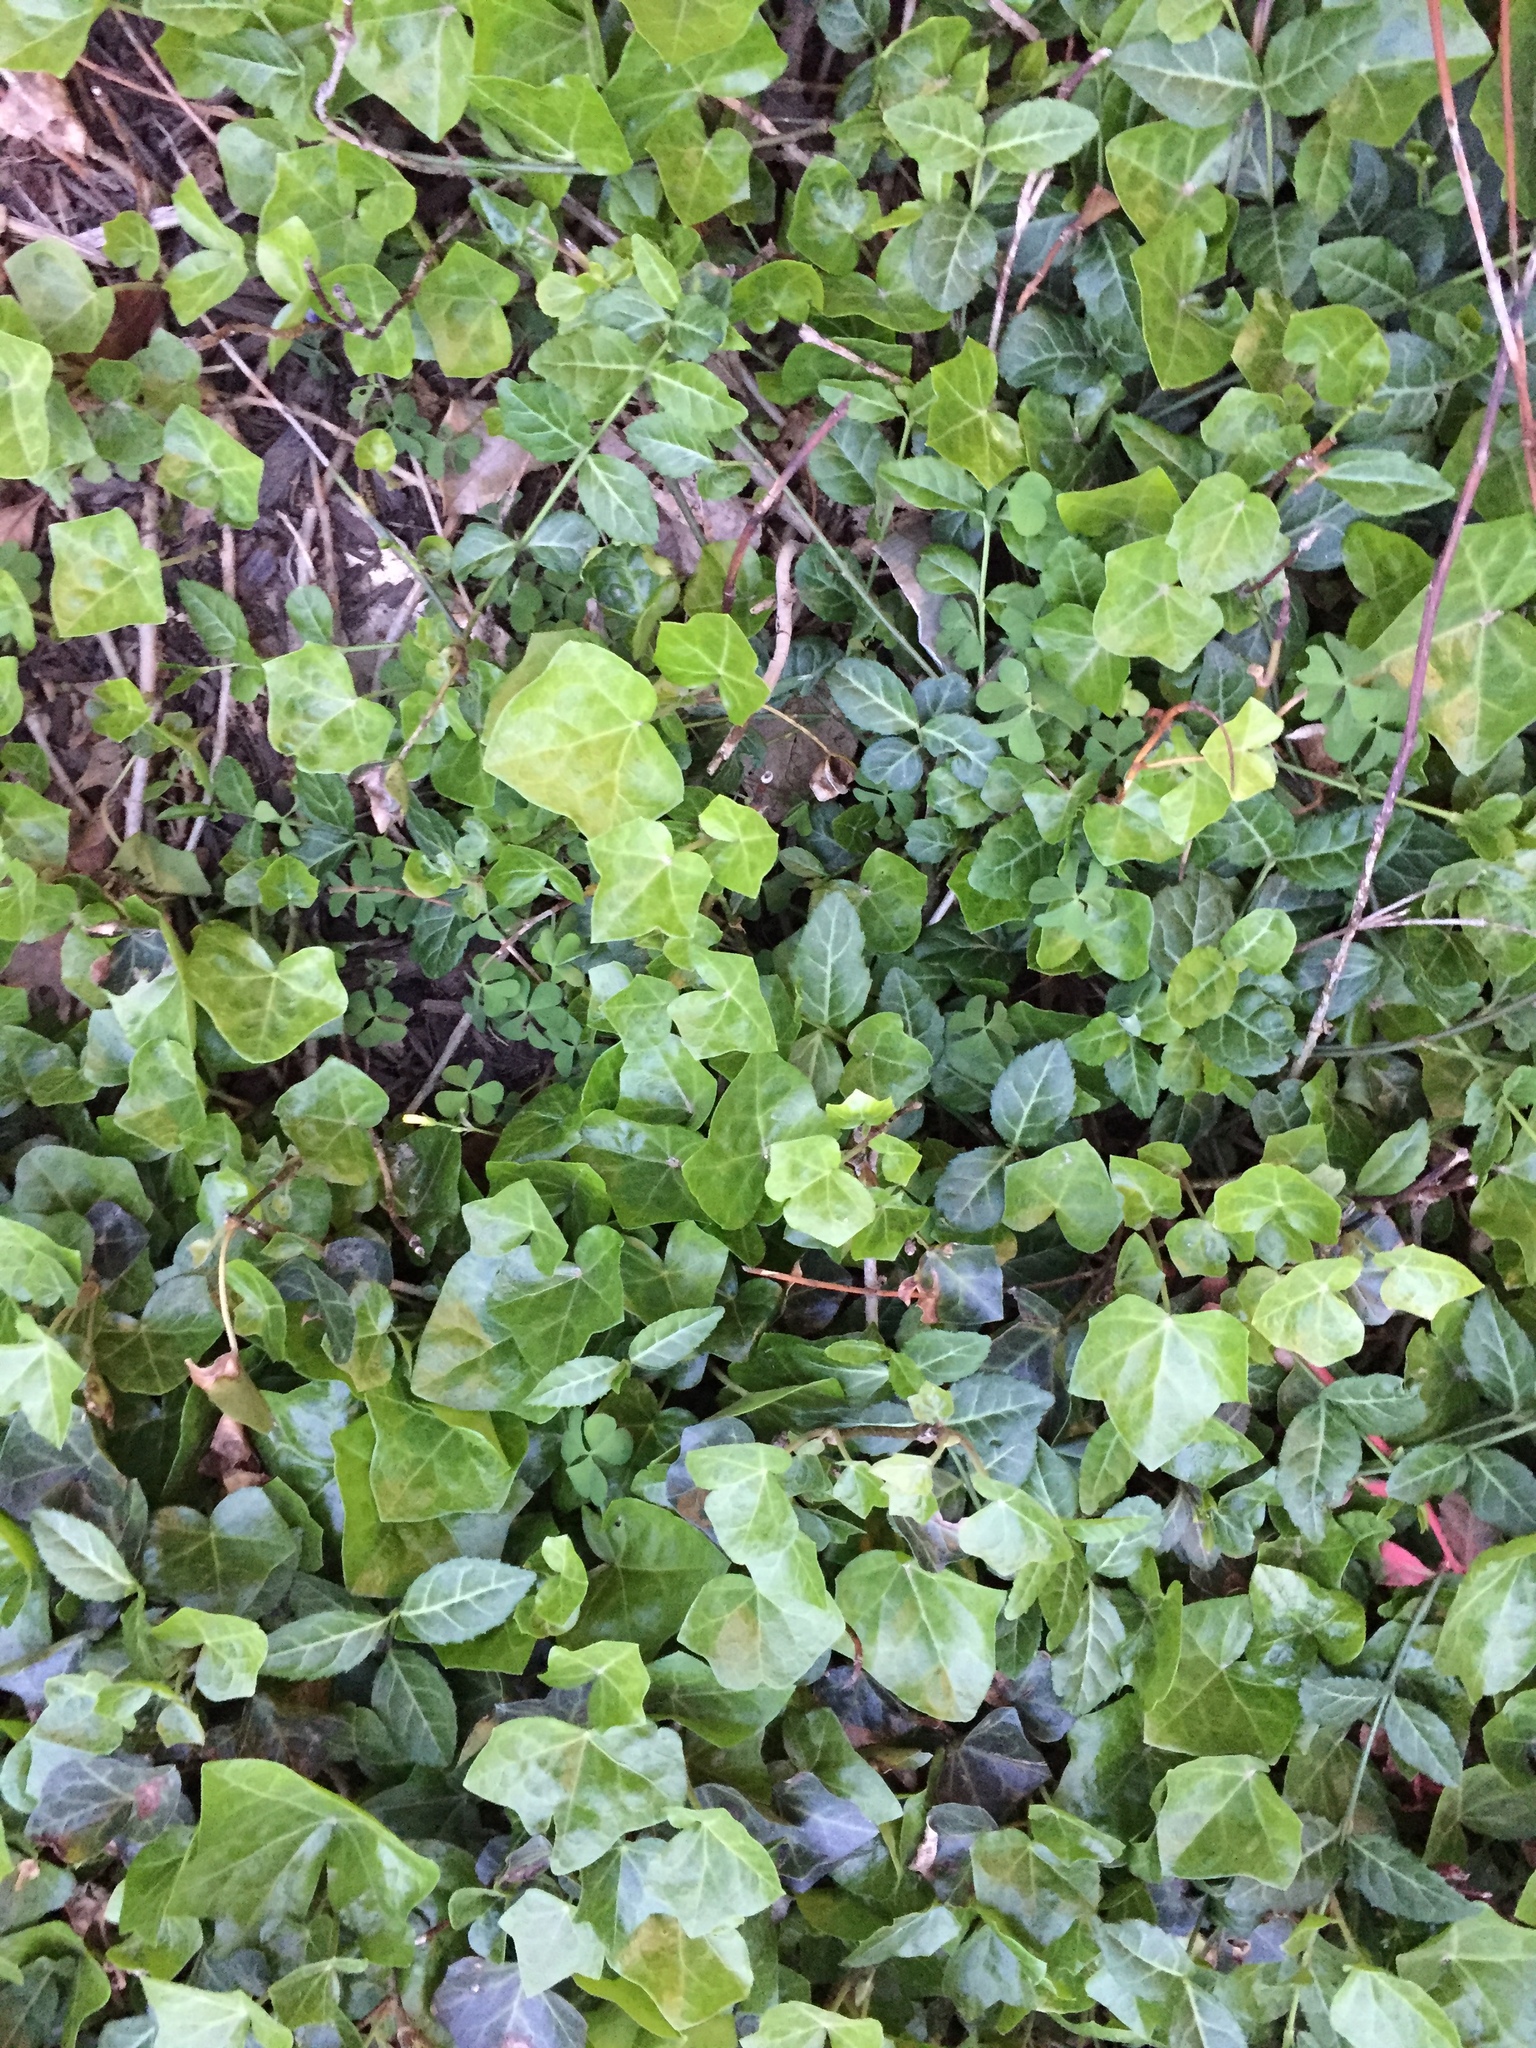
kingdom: Plantae
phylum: Tracheophyta
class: Magnoliopsida
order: Apiales
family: Araliaceae
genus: Hedera
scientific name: Hedera helix
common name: Ivy
